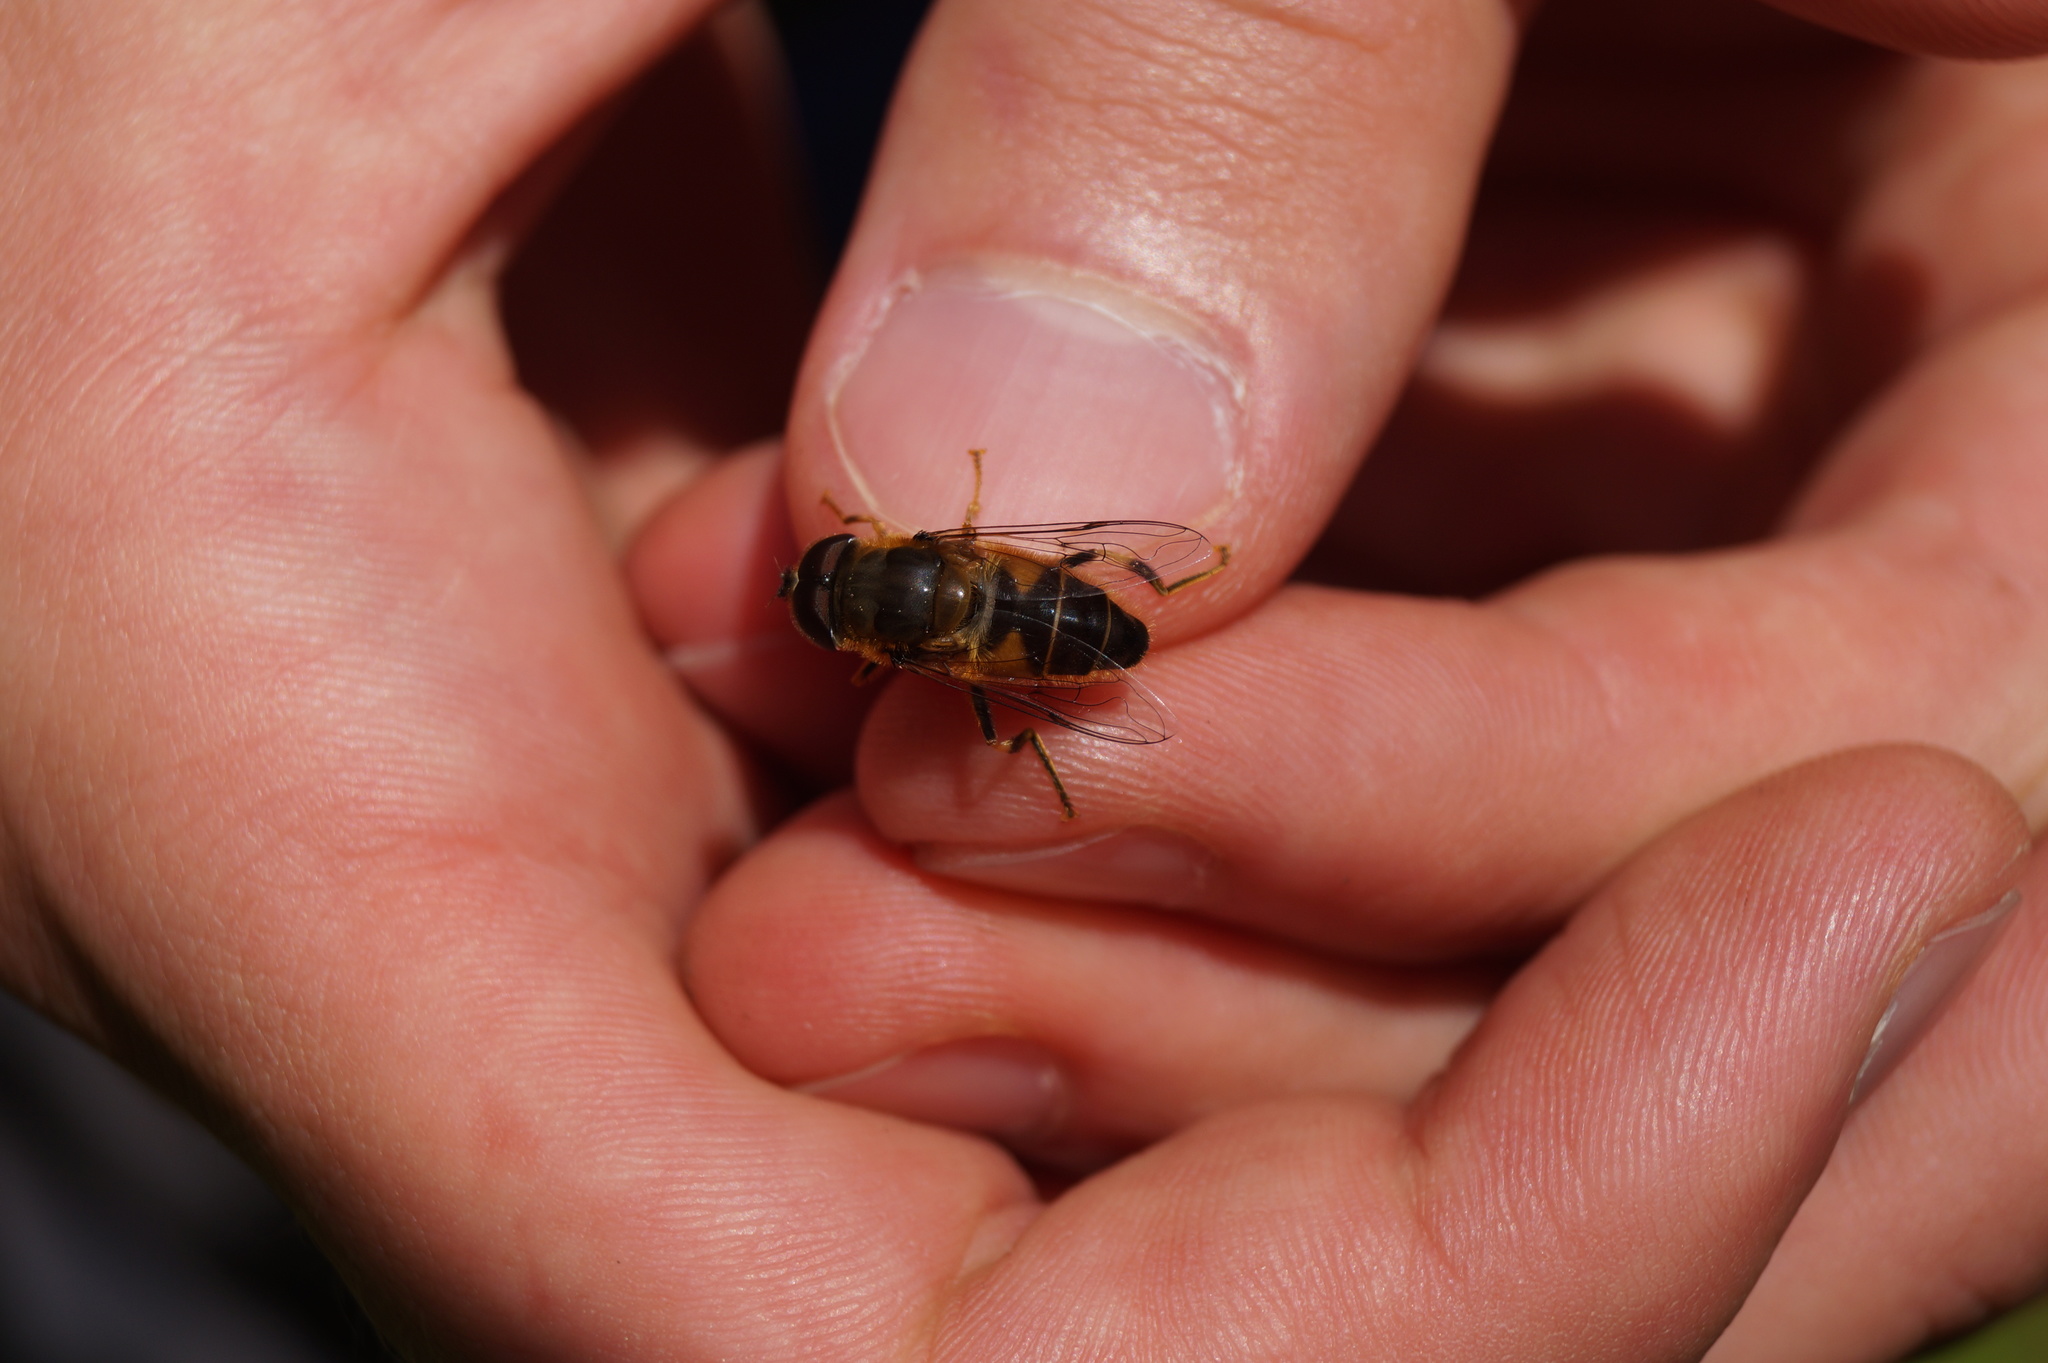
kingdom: Animalia
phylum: Arthropoda
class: Insecta
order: Diptera
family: Syrphidae
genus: Eristalis
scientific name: Eristalis pertinax
